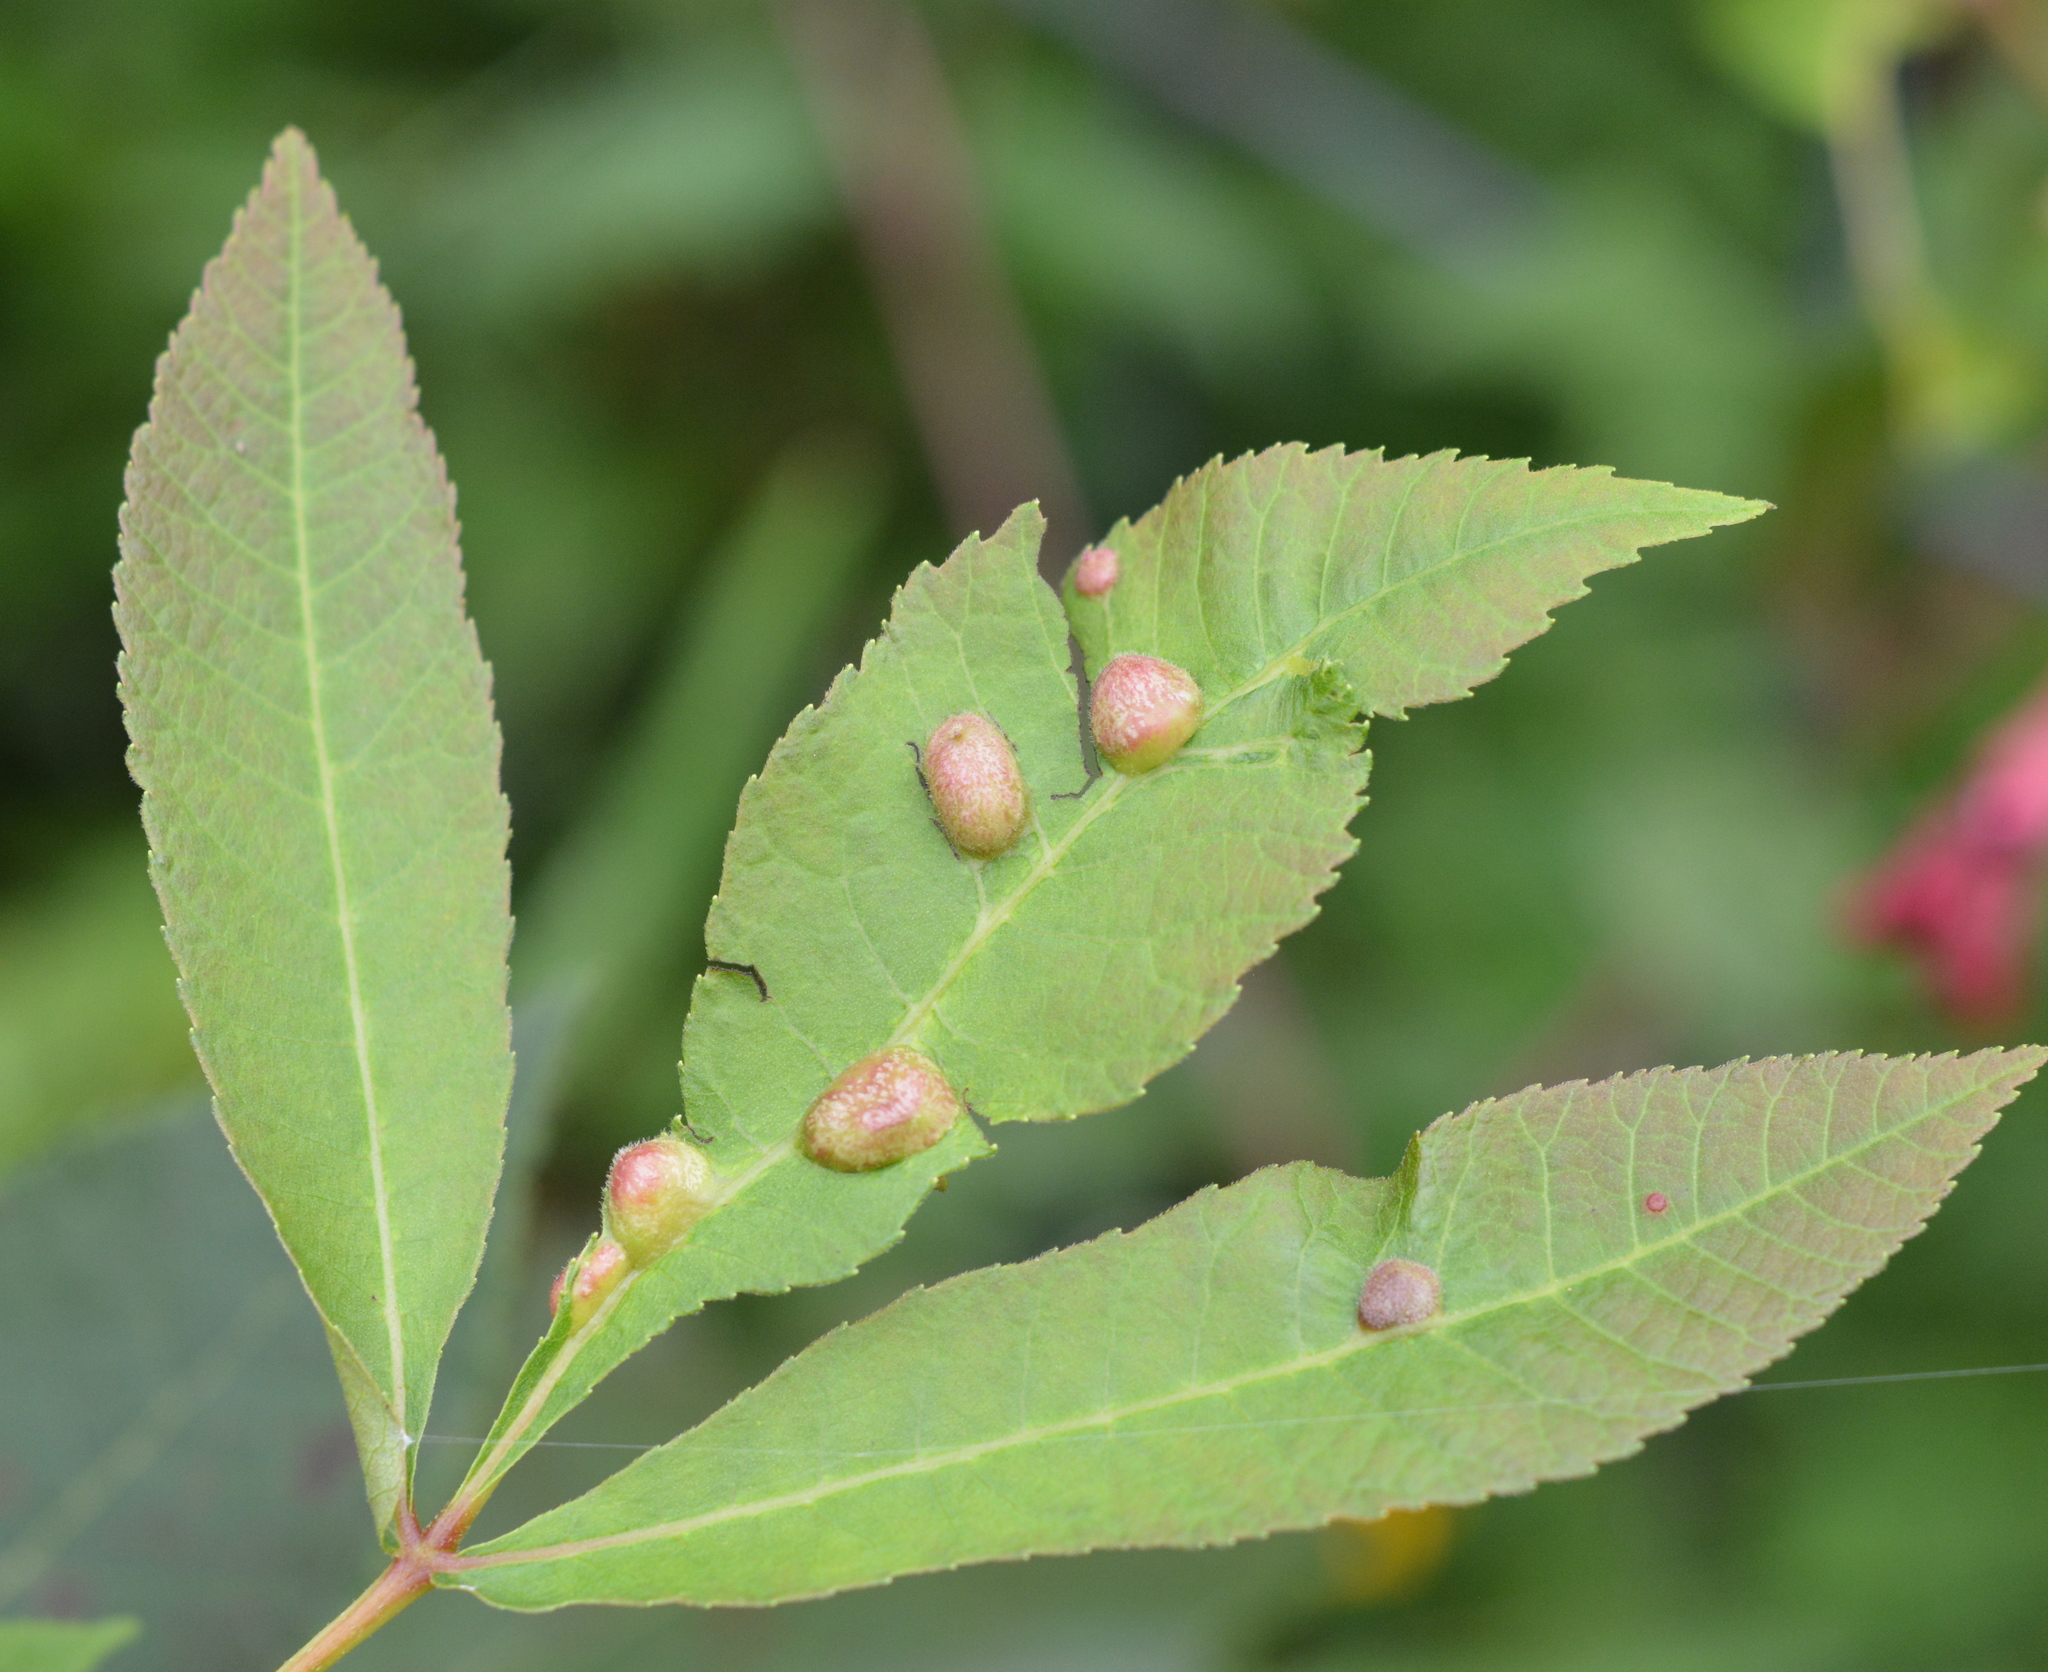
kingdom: Animalia
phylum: Arthropoda
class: Insecta
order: Hemiptera
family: Phylloxeridae
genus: Daktulosphaira
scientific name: Daktulosphaira notabilis
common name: Pecan leaf phylloxera
